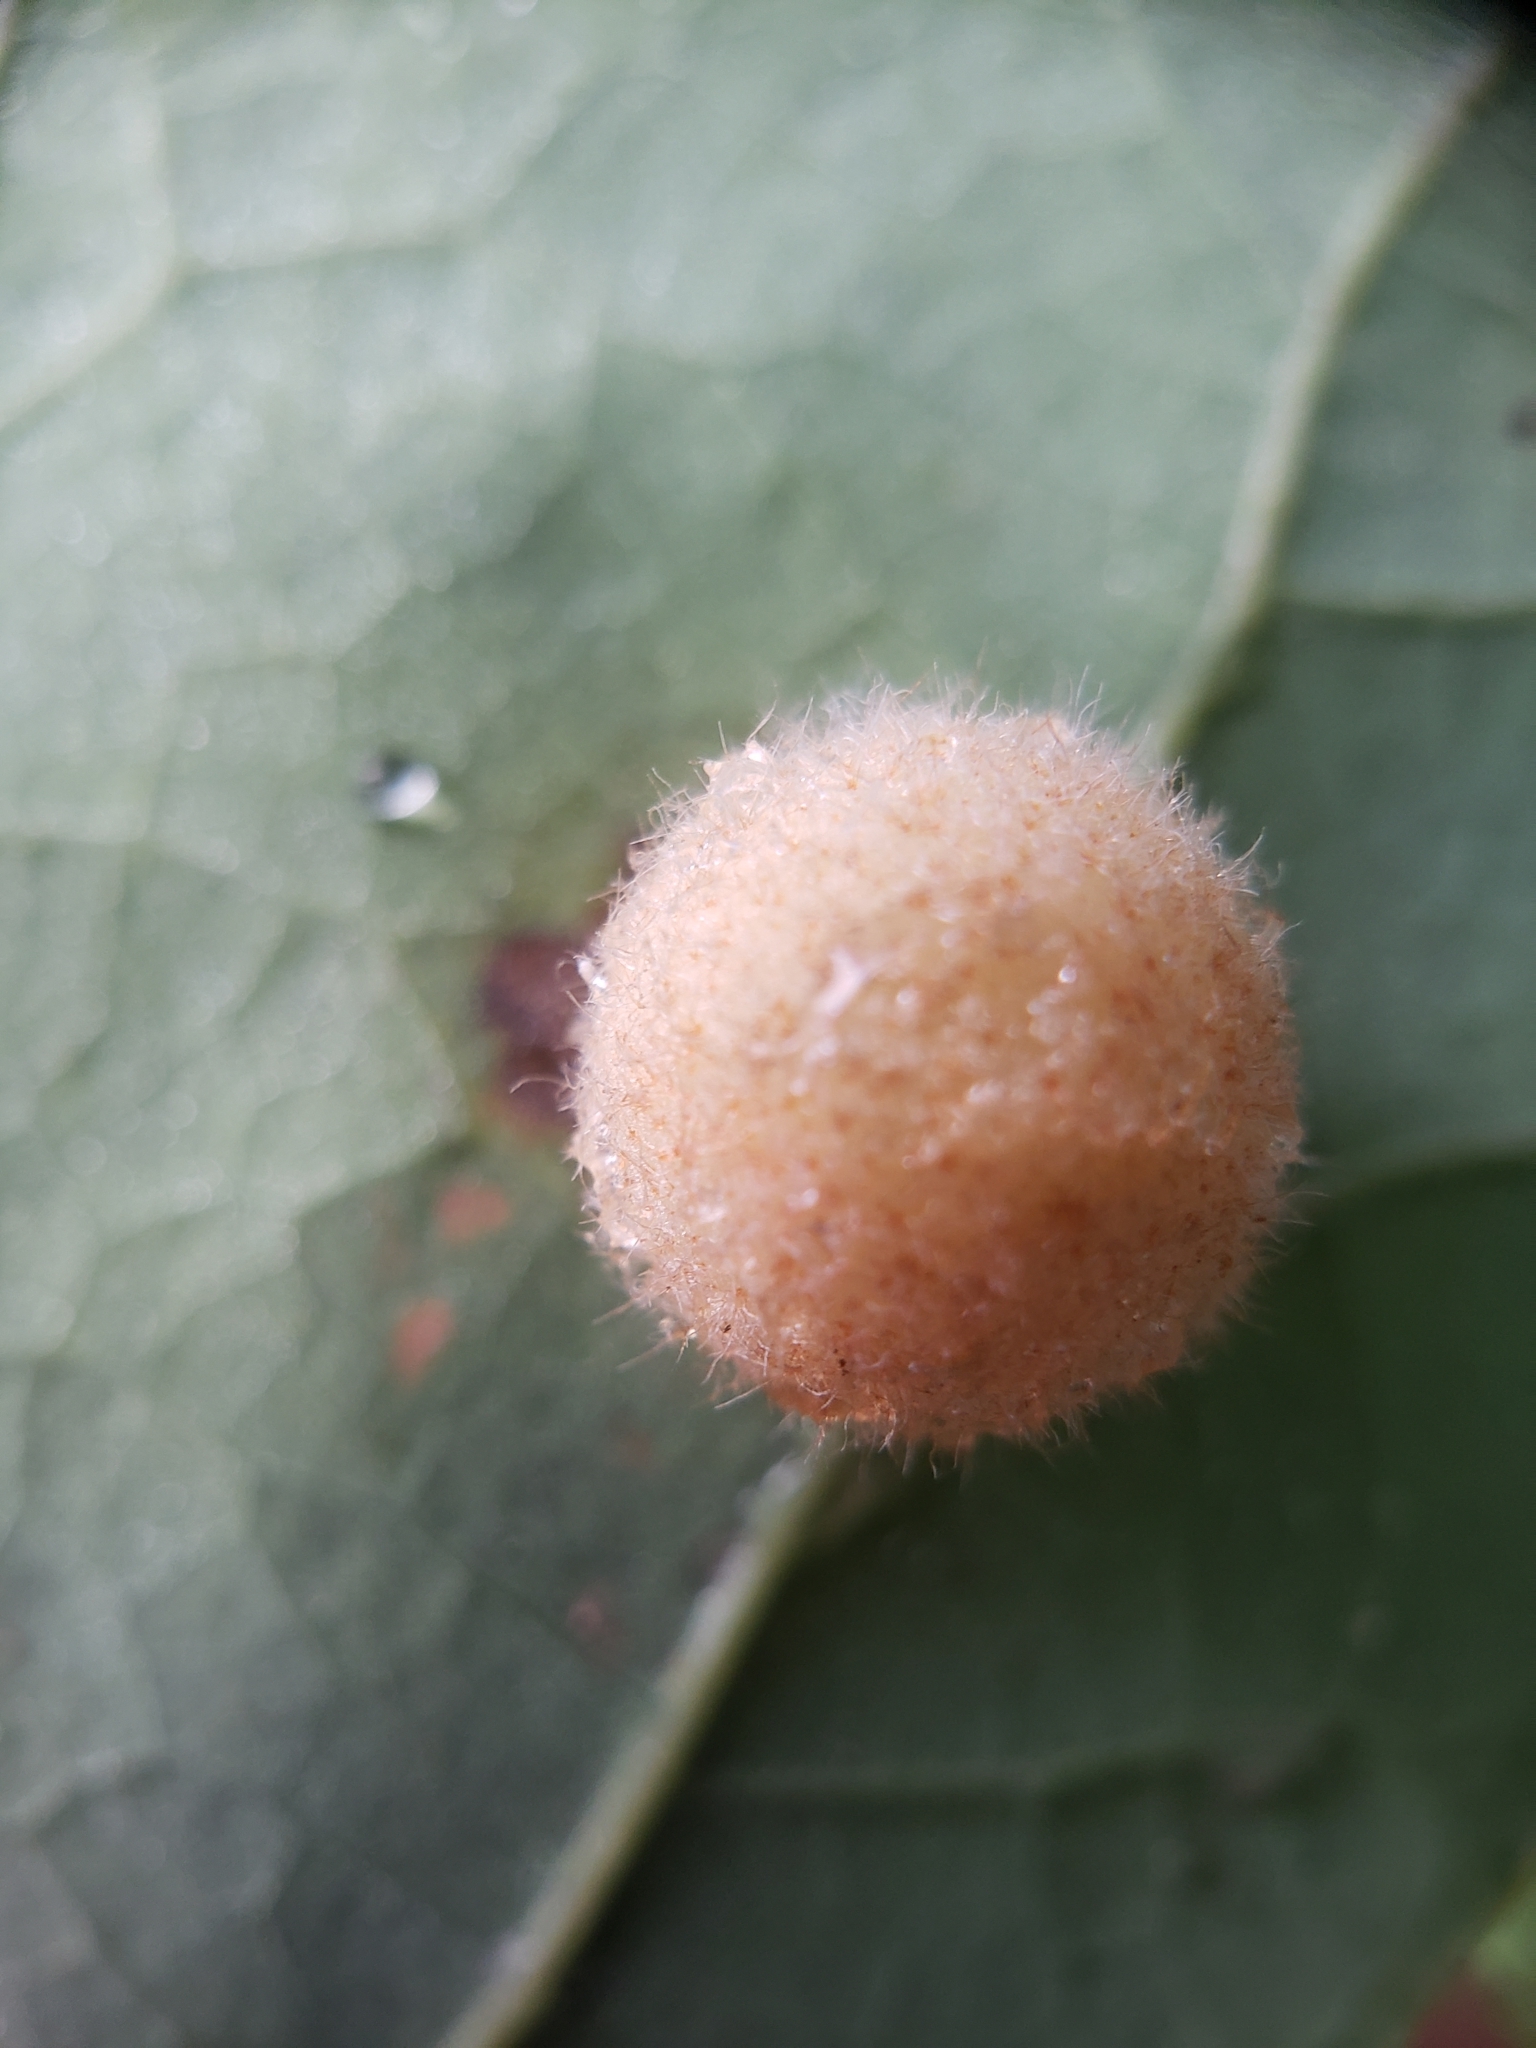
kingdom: Animalia
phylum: Arthropoda
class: Insecta
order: Hymenoptera
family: Cynipidae
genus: Philonix
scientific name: Philonix fulvicollis
